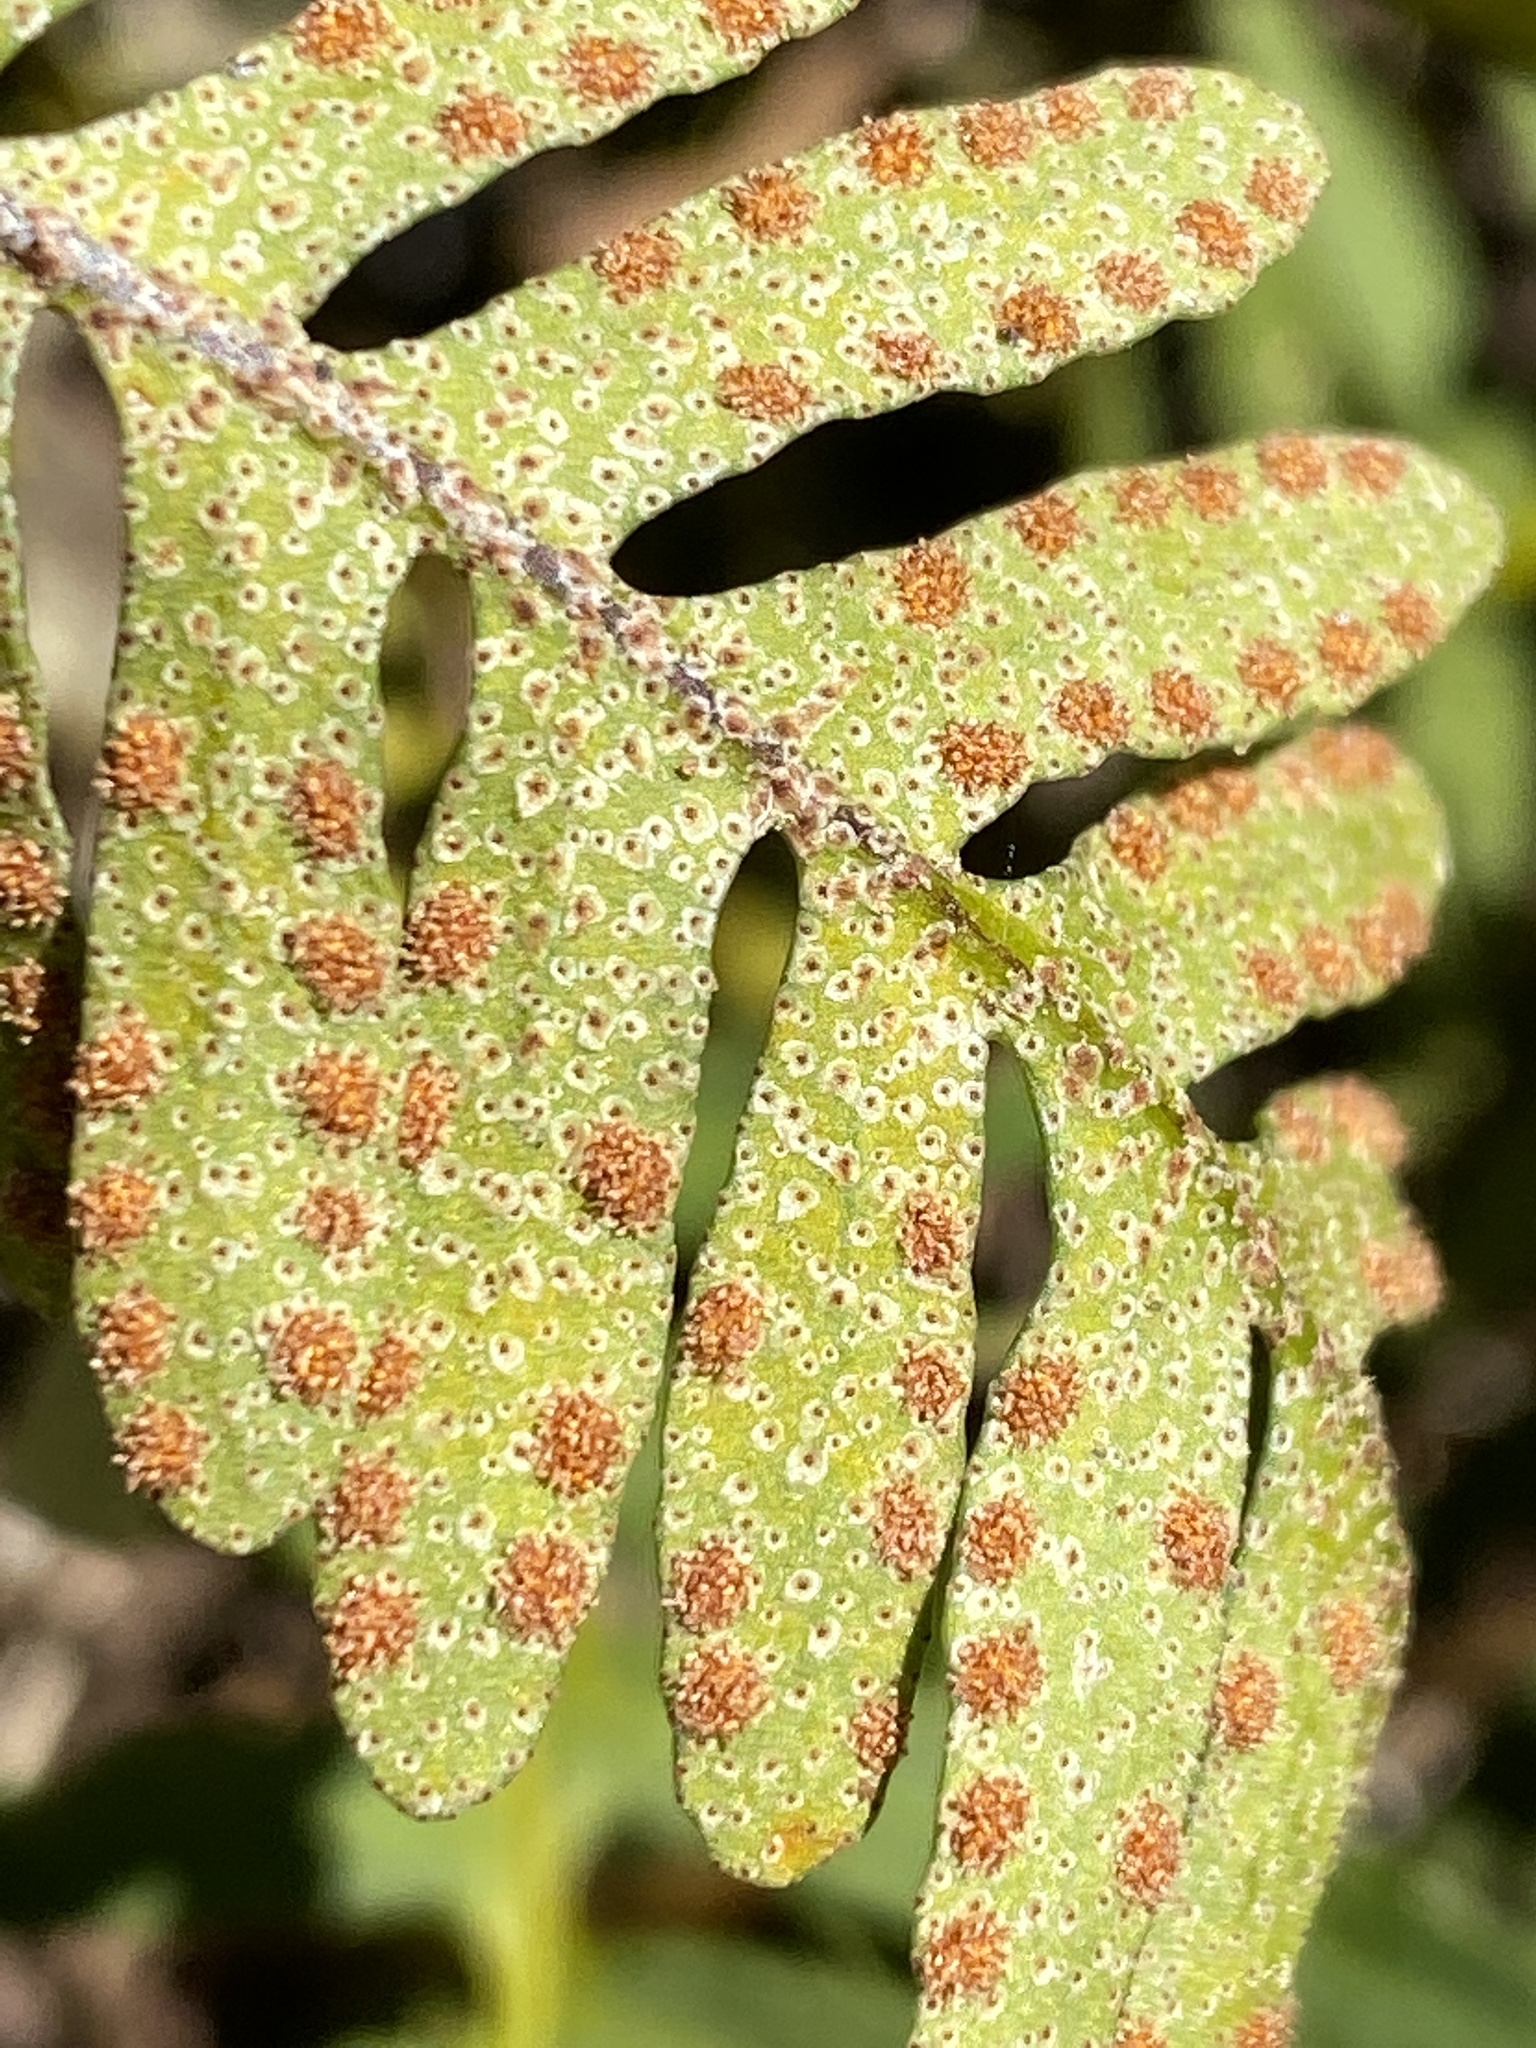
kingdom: Plantae
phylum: Tracheophyta
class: Polypodiopsida
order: Polypodiales
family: Polypodiaceae
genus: Pleopeltis
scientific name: Pleopeltis michauxiana
